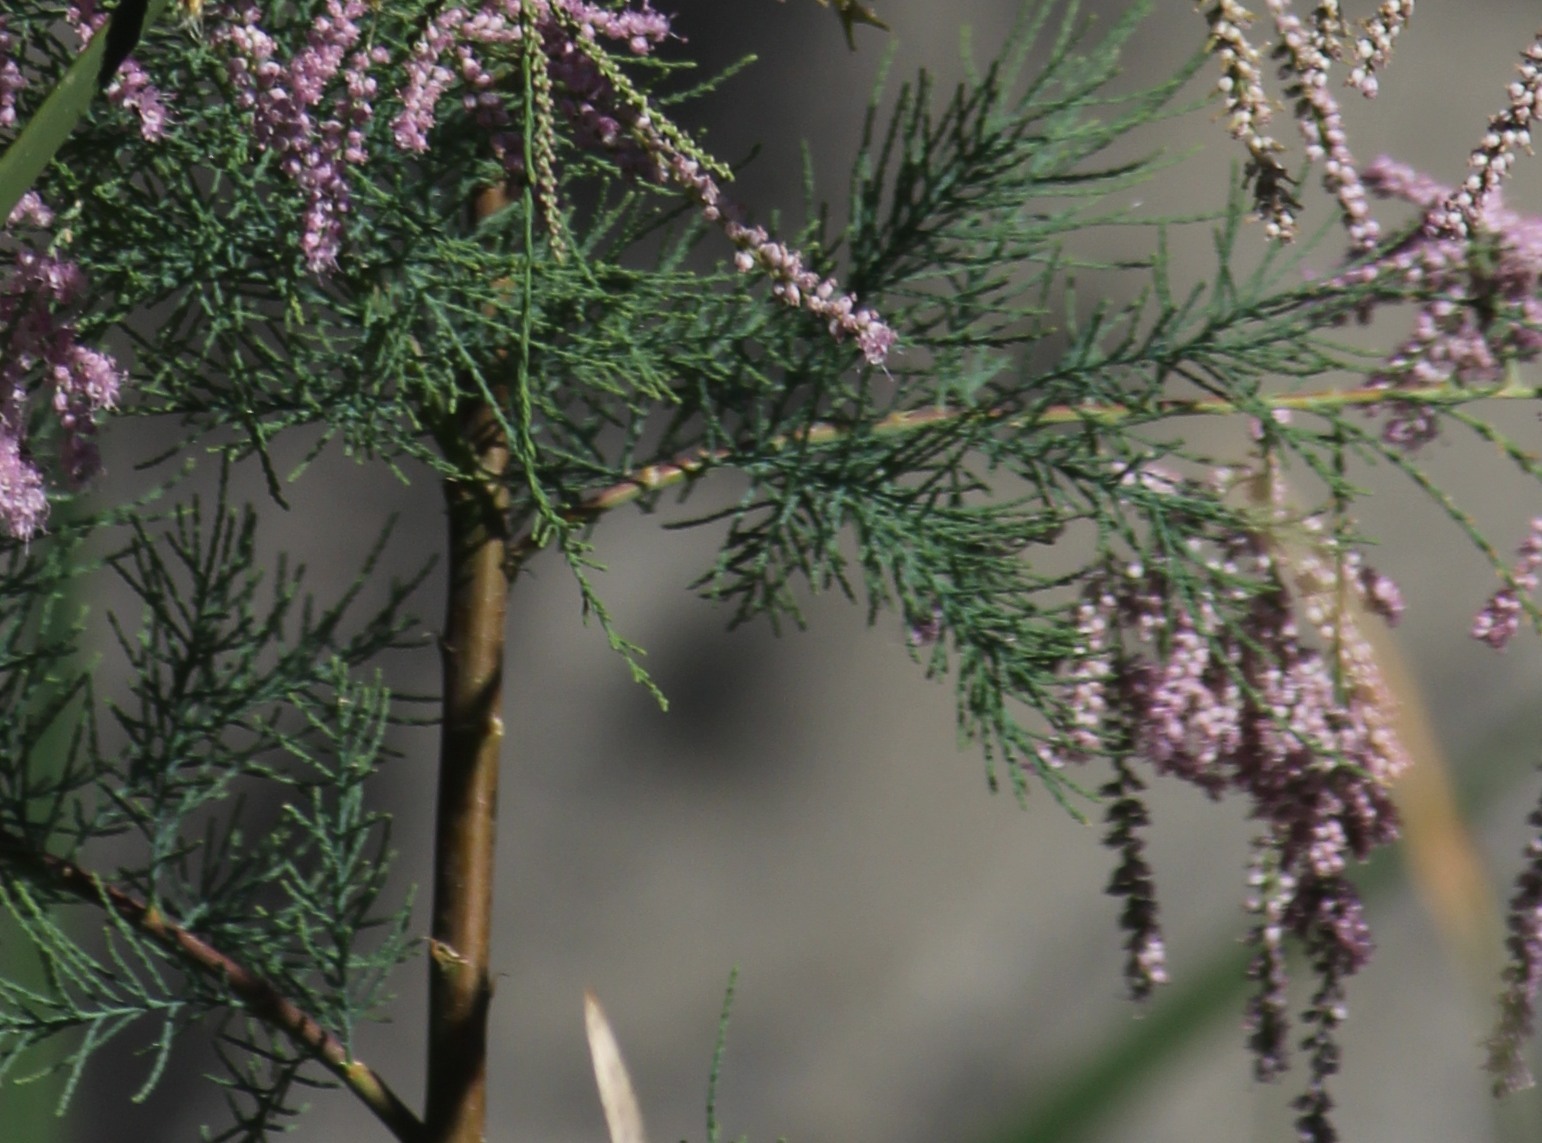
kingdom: Plantae
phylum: Tracheophyta
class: Magnoliopsida
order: Caryophyllales
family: Tamaricaceae
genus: Tamarix
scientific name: Tamarix ramosissima
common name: Pink tamarisk
